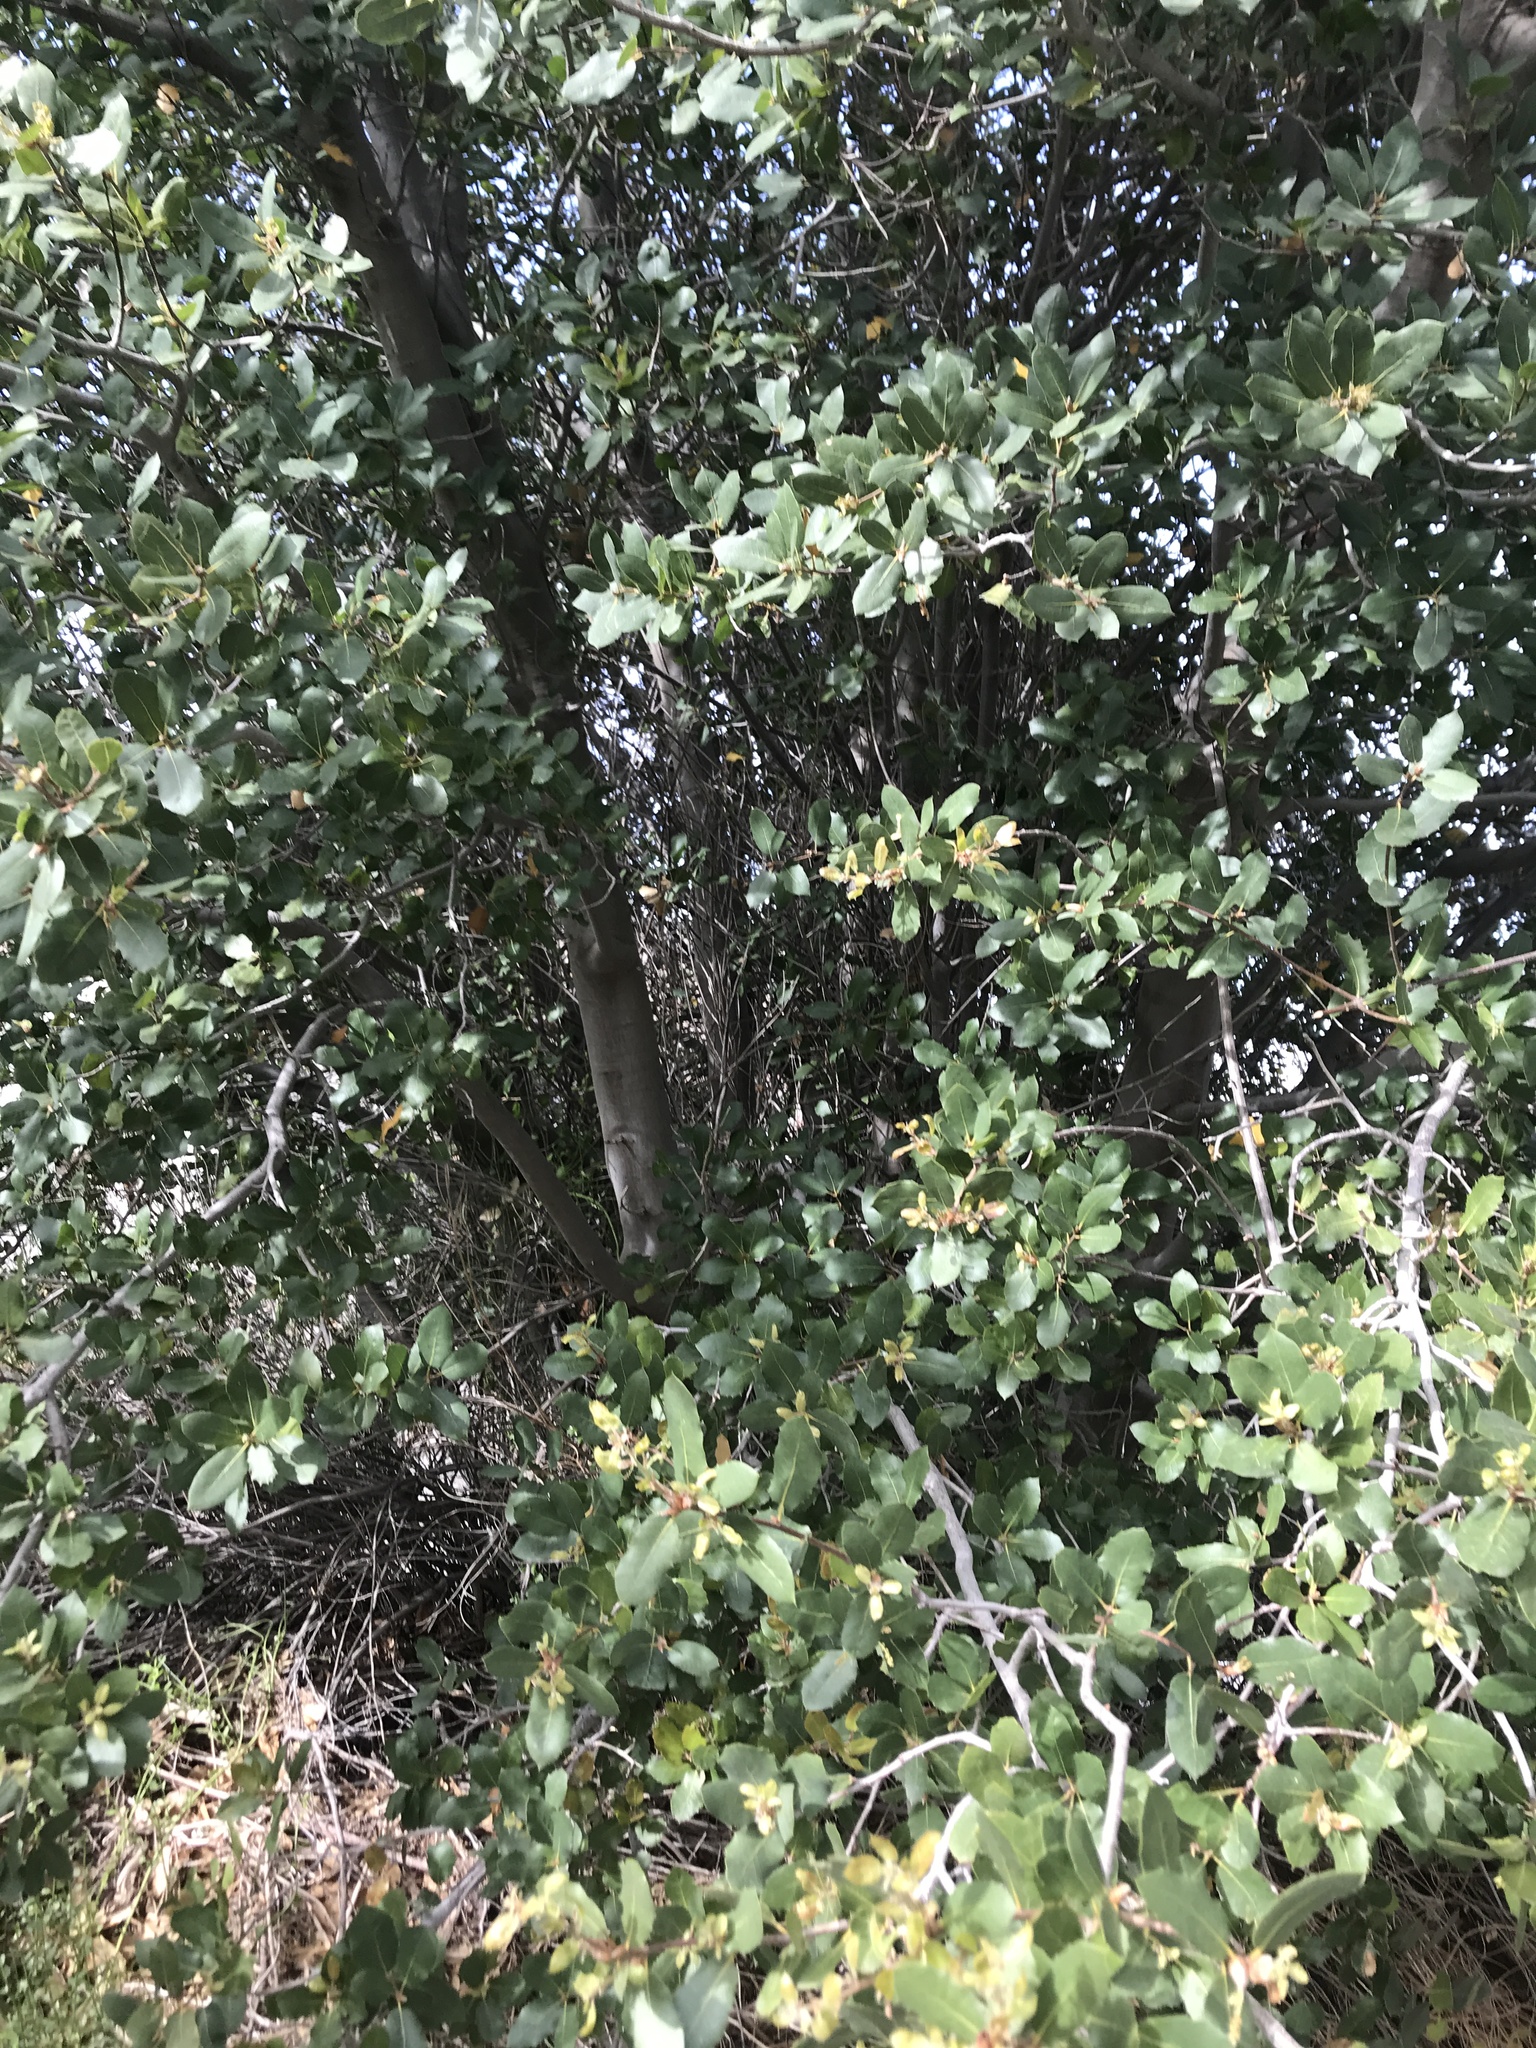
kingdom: Plantae
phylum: Tracheophyta
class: Magnoliopsida
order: Fagales
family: Fagaceae
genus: Quercus
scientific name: Quercus wislizeni
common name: Interior live oak
